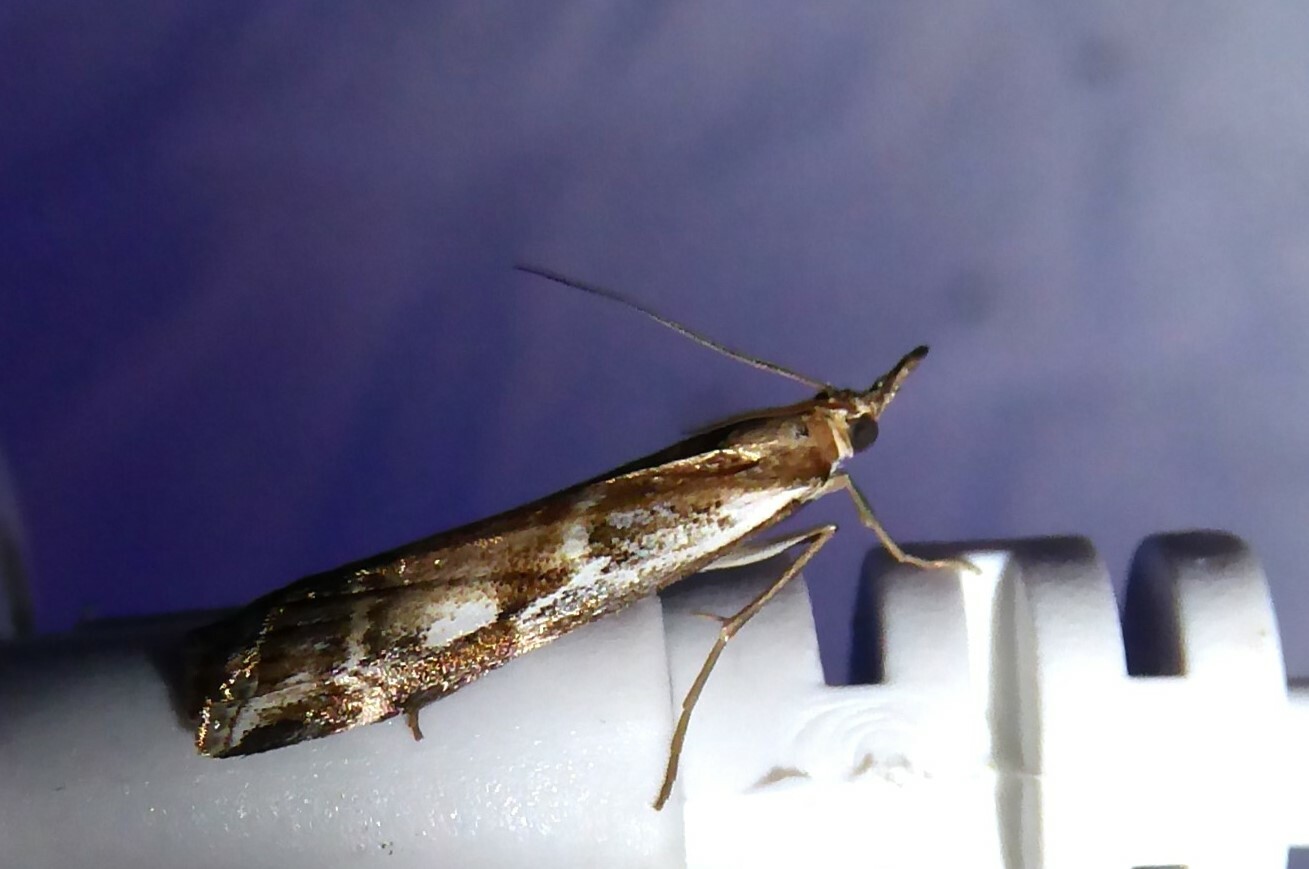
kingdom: Animalia
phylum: Arthropoda
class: Insecta
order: Lepidoptera
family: Crambidae
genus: Orocrambus
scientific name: Orocrambus vulgaris
